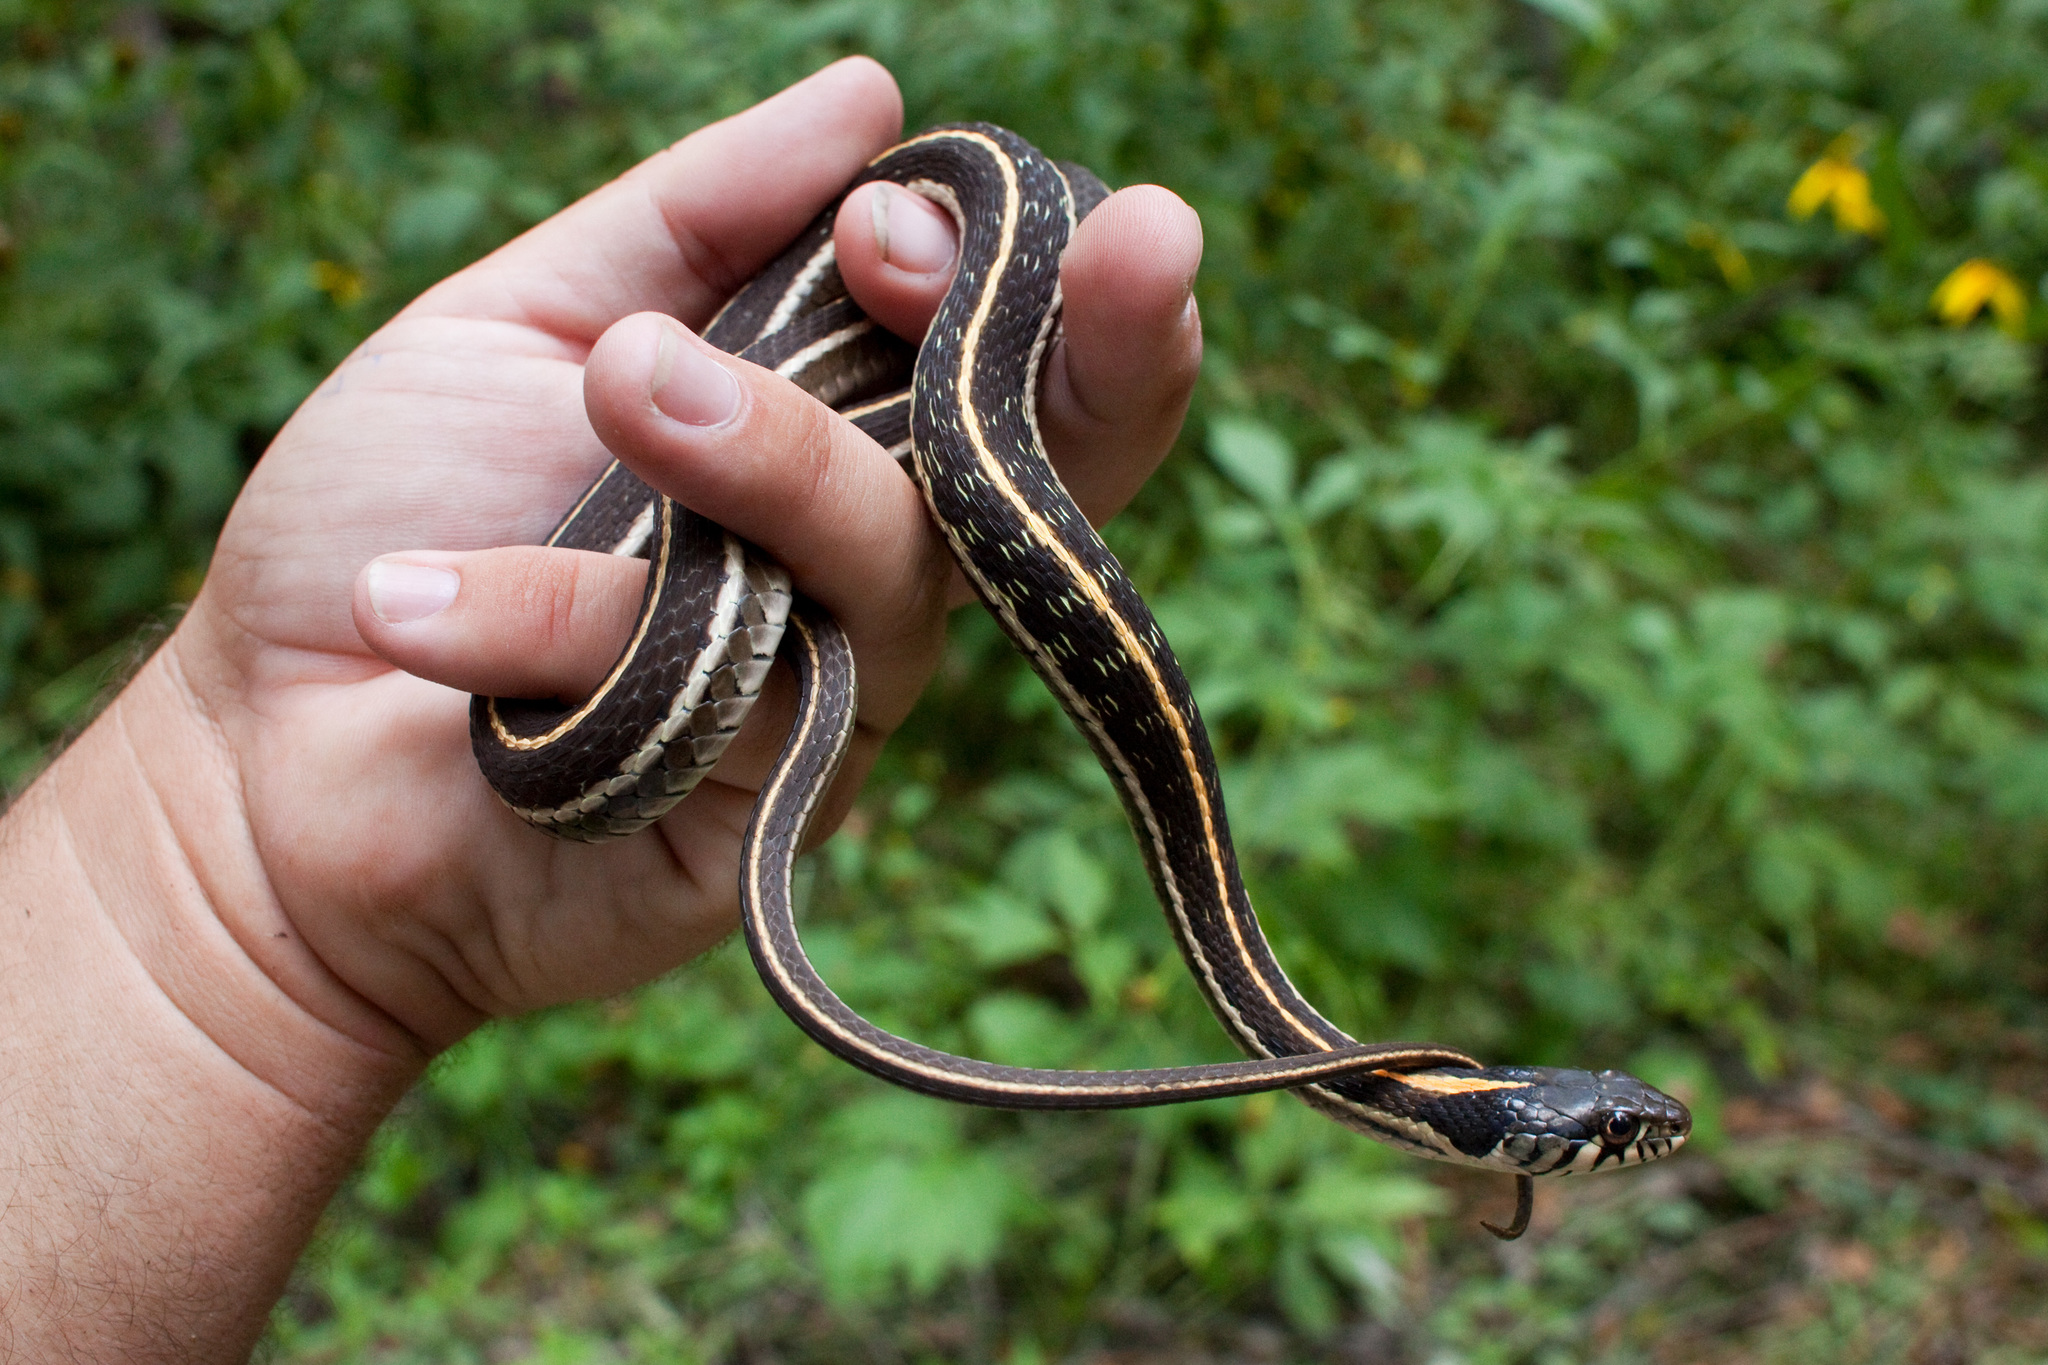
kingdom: Animalia
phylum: Chordata
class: Squamata
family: Colubridae
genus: Thamnophis
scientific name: Thamnophis cyrtopsis
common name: Black-necked gartersnake
